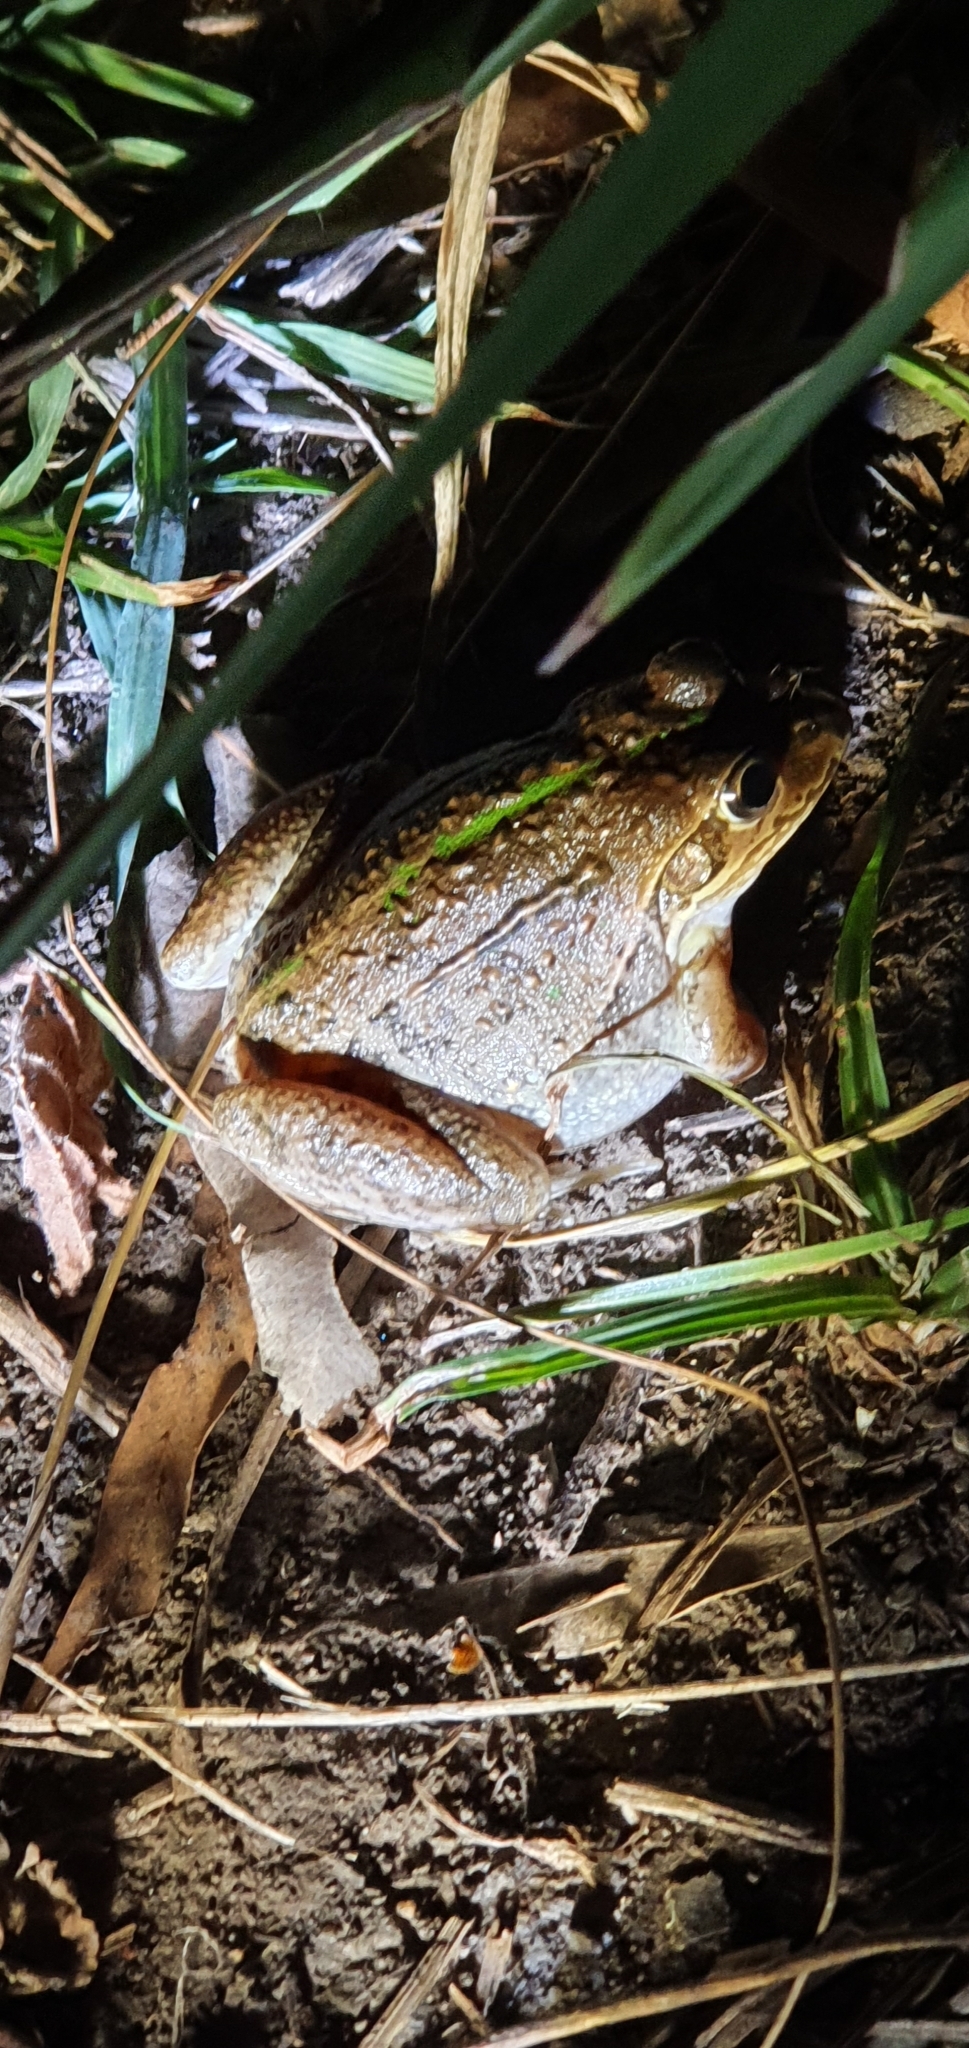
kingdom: Animalia
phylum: Chordata
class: Amphibia
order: Anura
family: Pelodryadidae
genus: Ranoidea
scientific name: Ranoidea alboguttata
